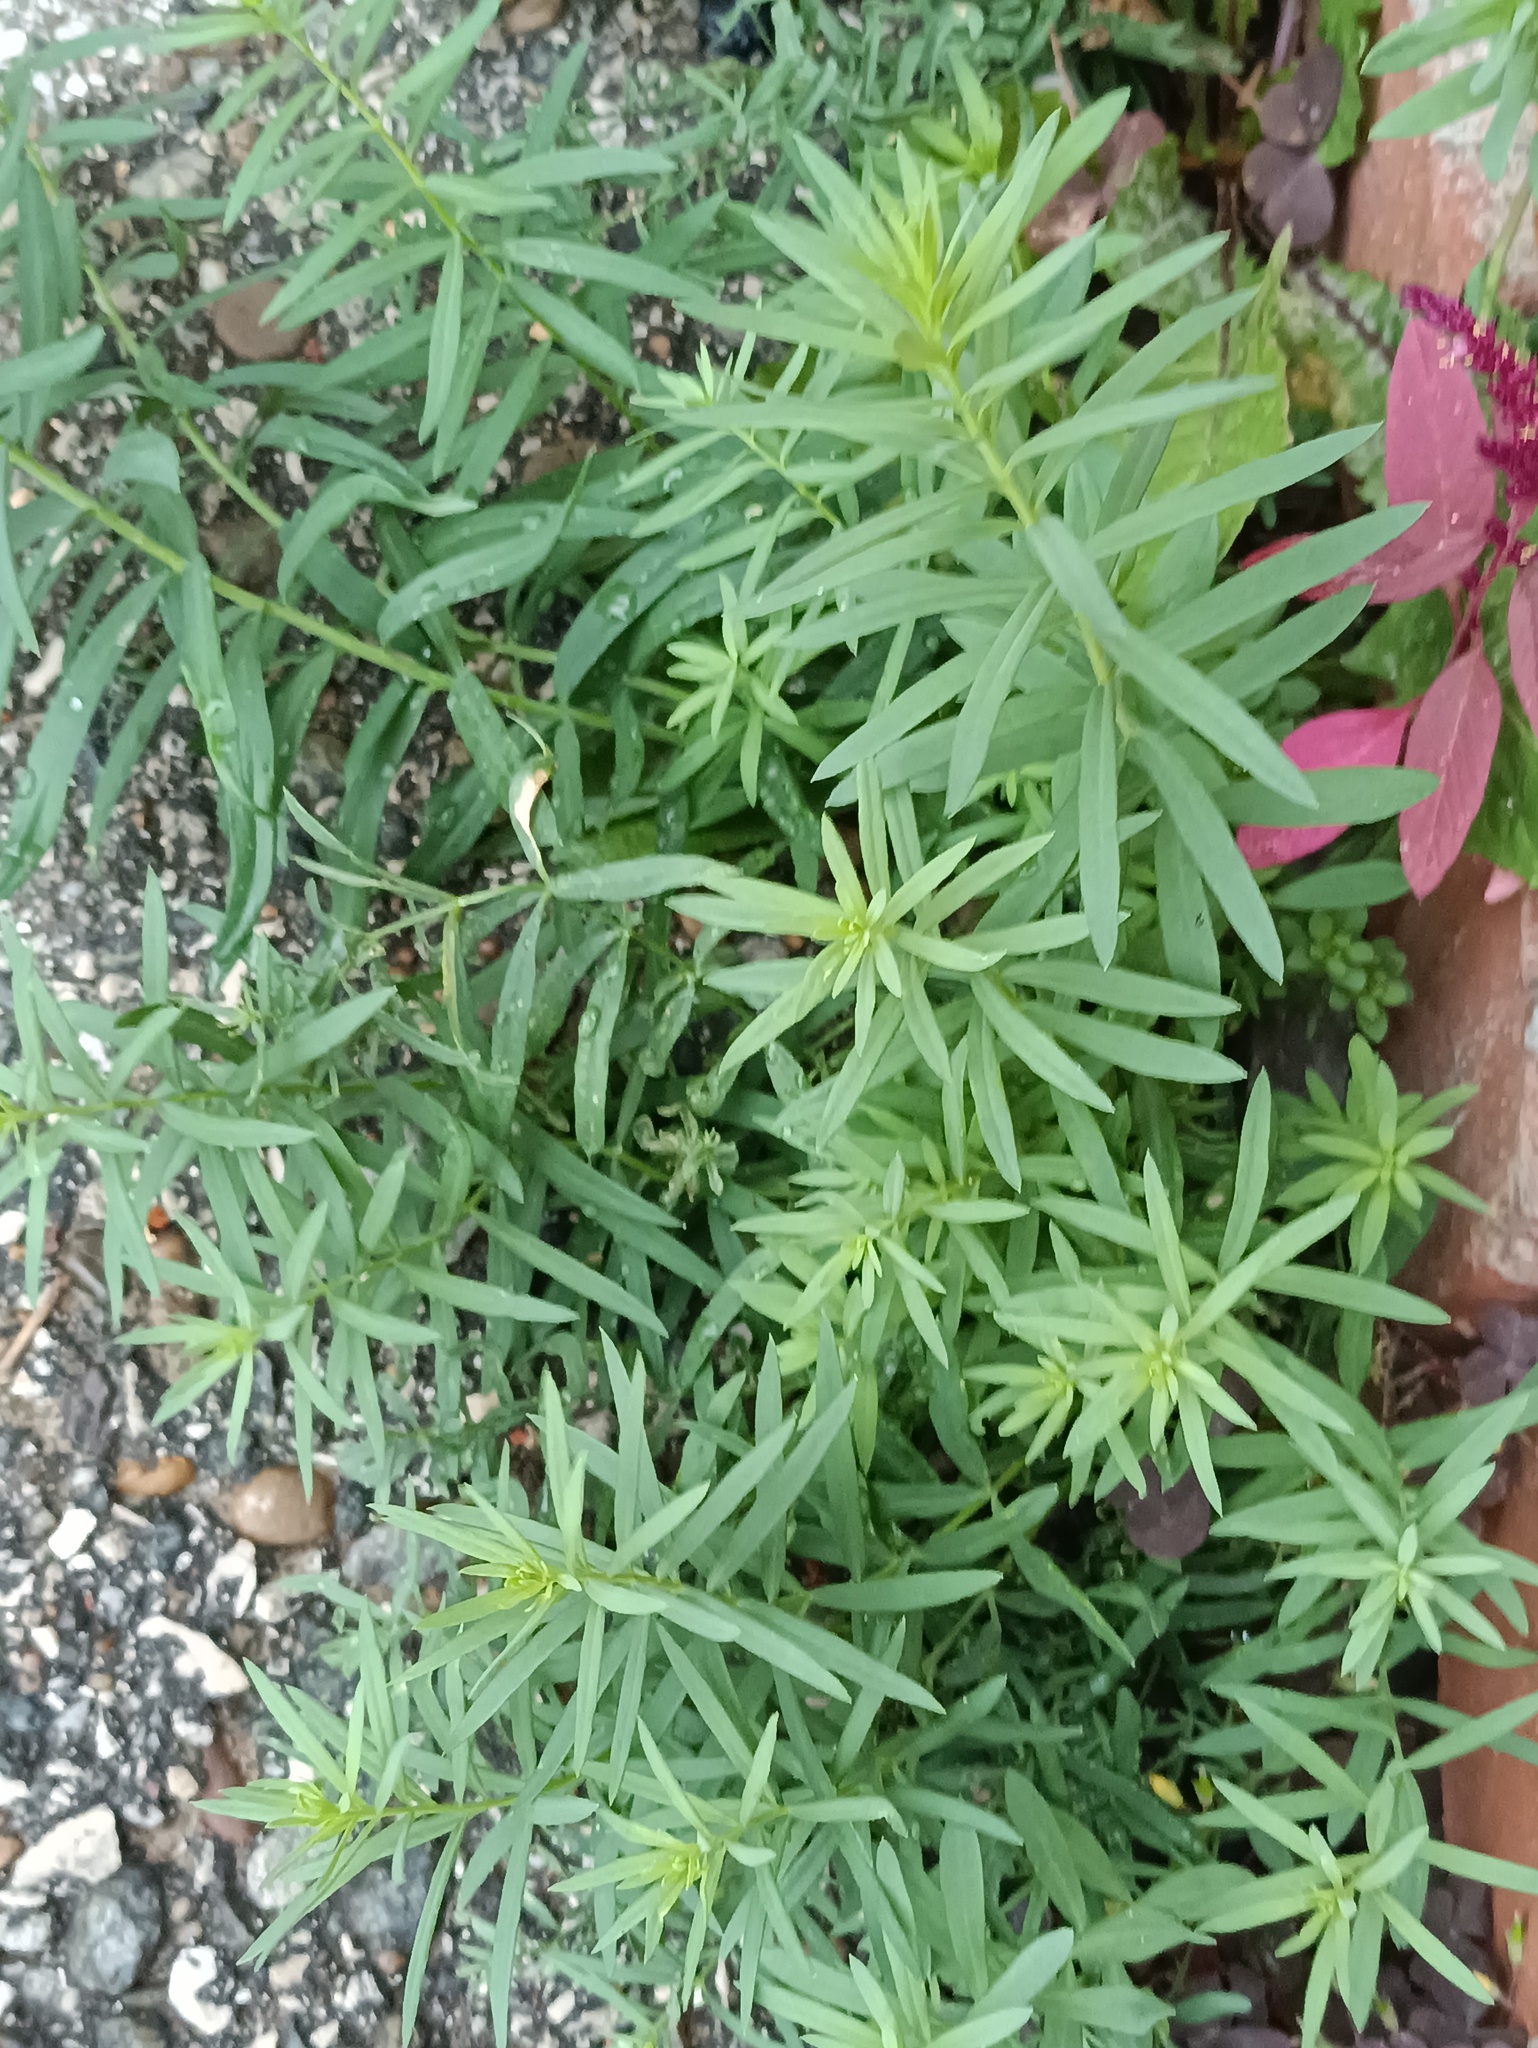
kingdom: Plantae
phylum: Tracheophyta
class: Magnoliopsida
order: Lamiales
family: Plantaginaceae
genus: Linaria
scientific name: Linaria vulgaris
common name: Butter and eggs
